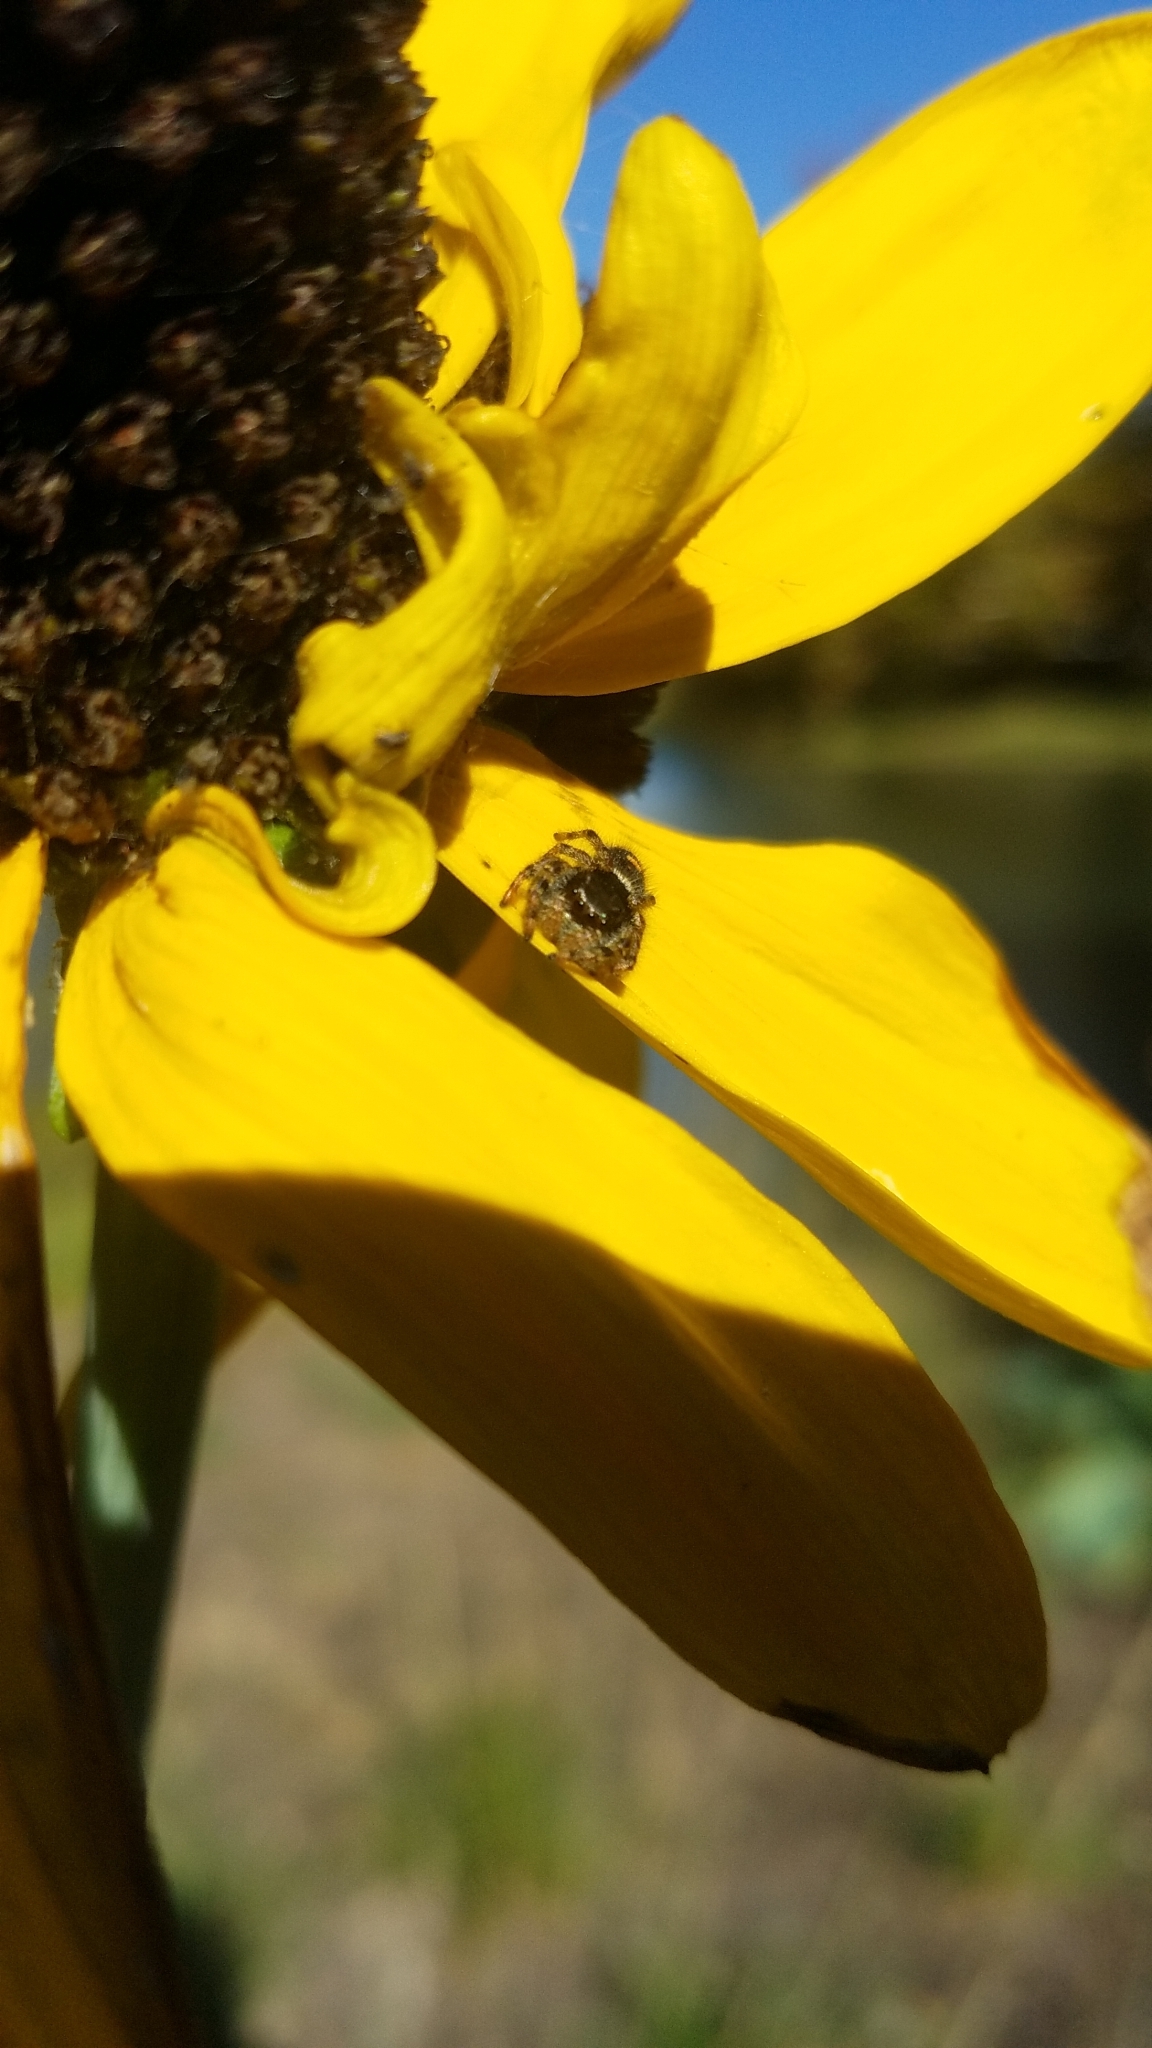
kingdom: Animalia
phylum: Arthropoda
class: Arachnida
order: Araneae
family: Salticidae
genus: Phidippus
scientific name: Phidippus audax
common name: Bold jumper
